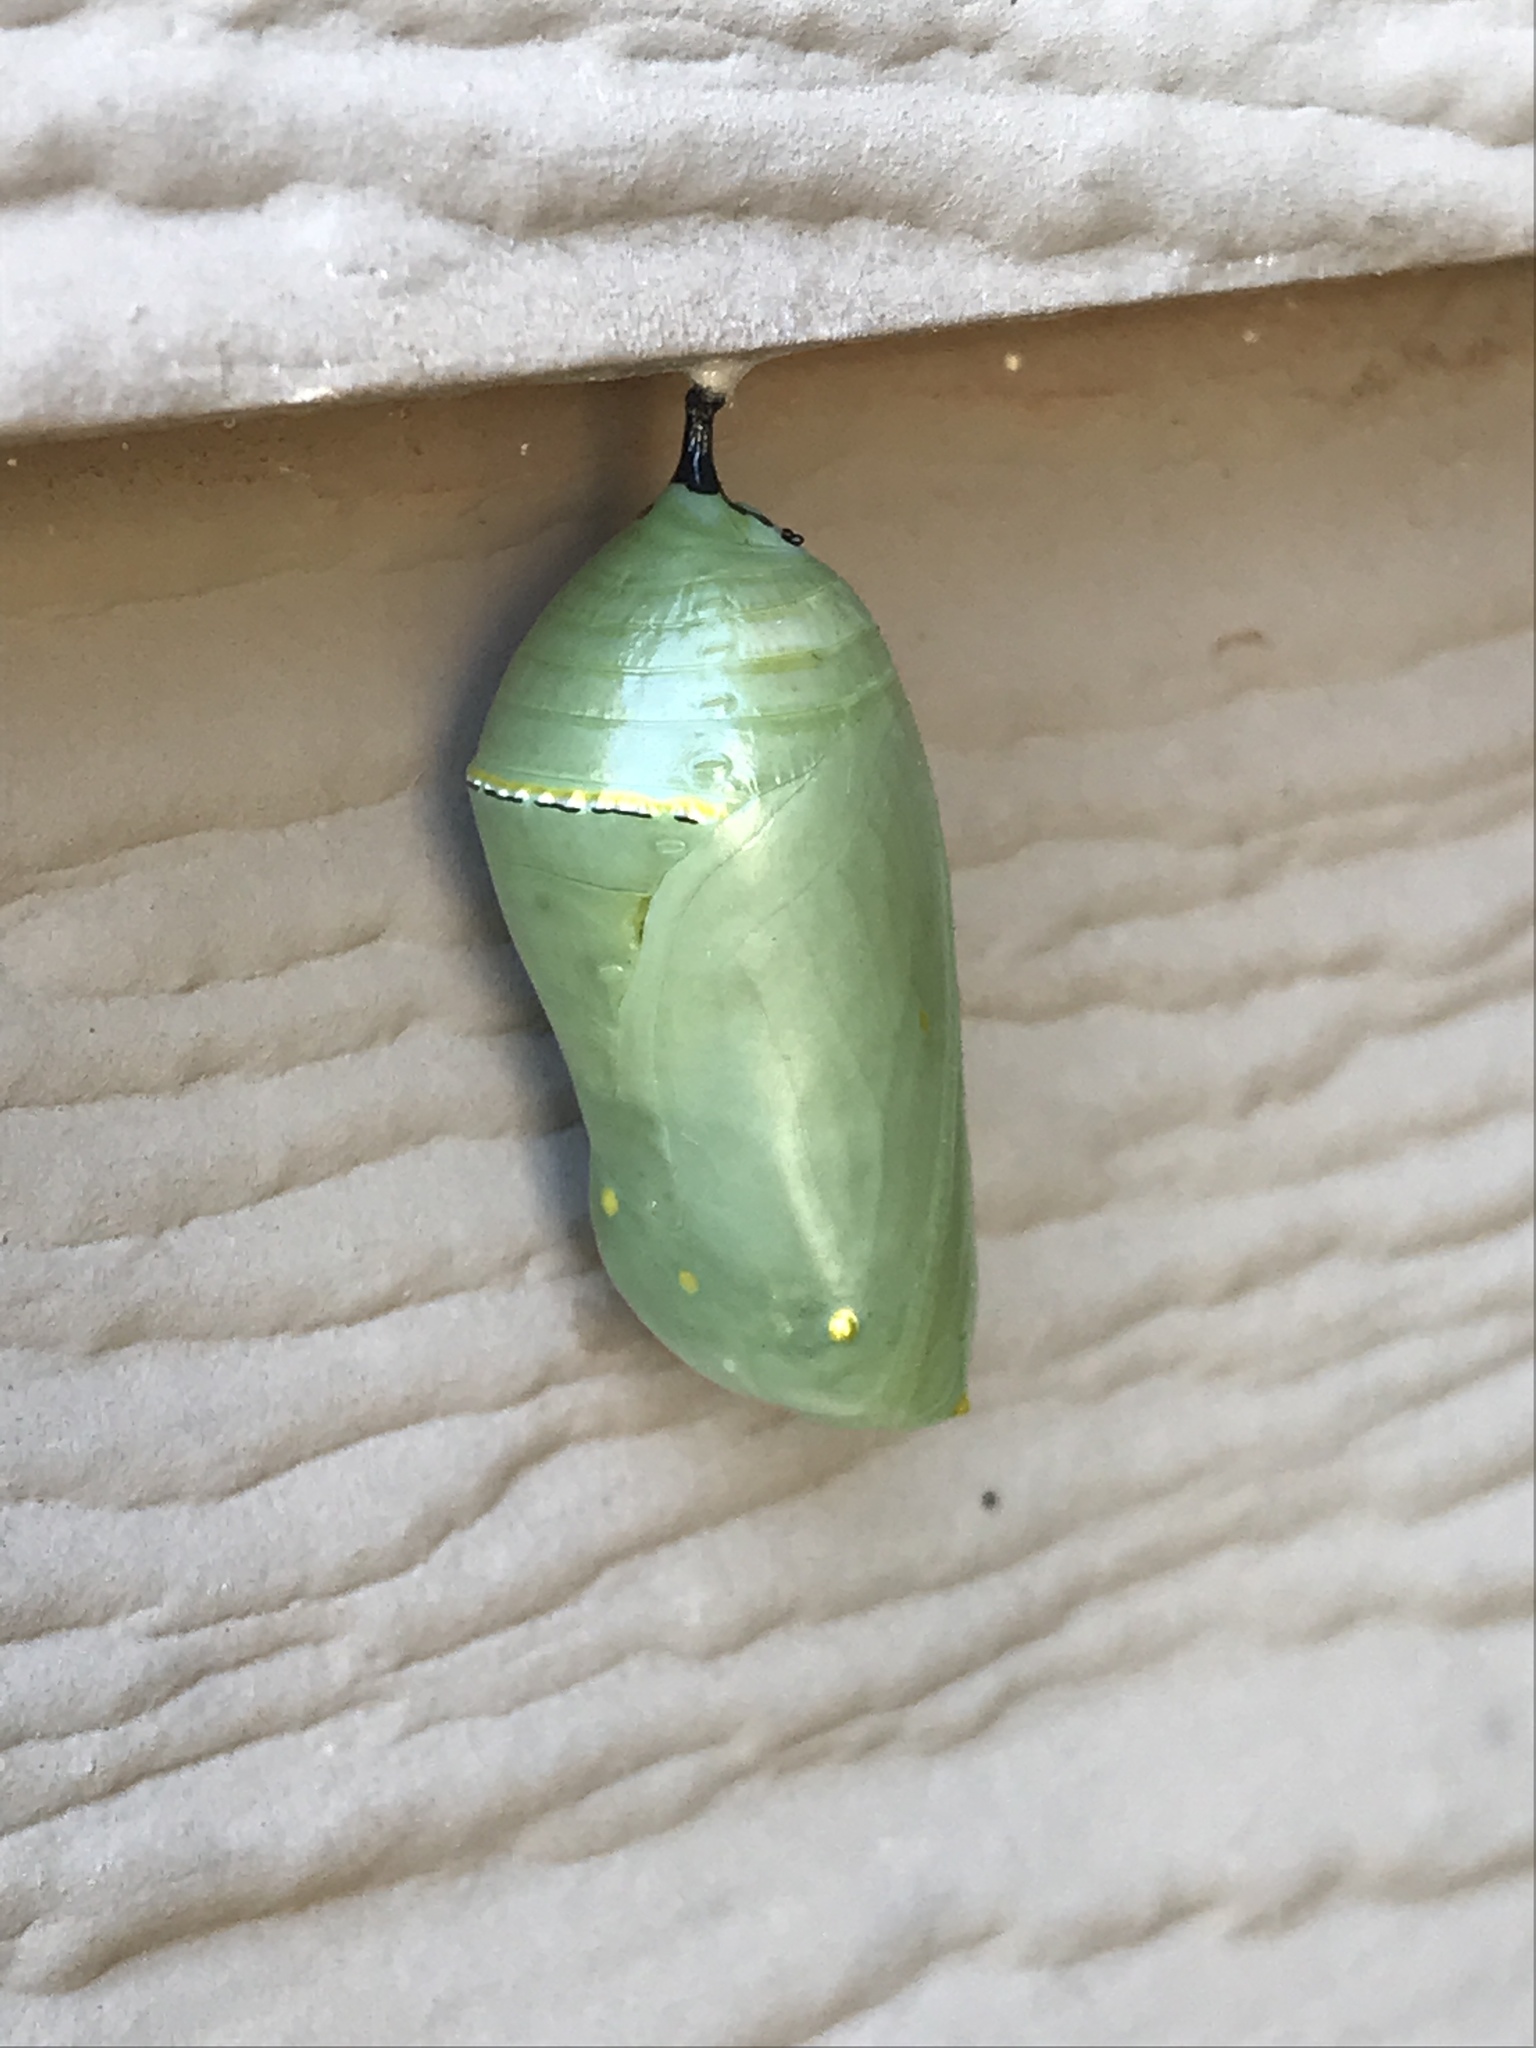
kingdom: Animalia
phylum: Arthropoda
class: Insecta
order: Lepidoptera
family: Nymphalidae
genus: Danaus
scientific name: Danaus plexippus
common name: Monarch
